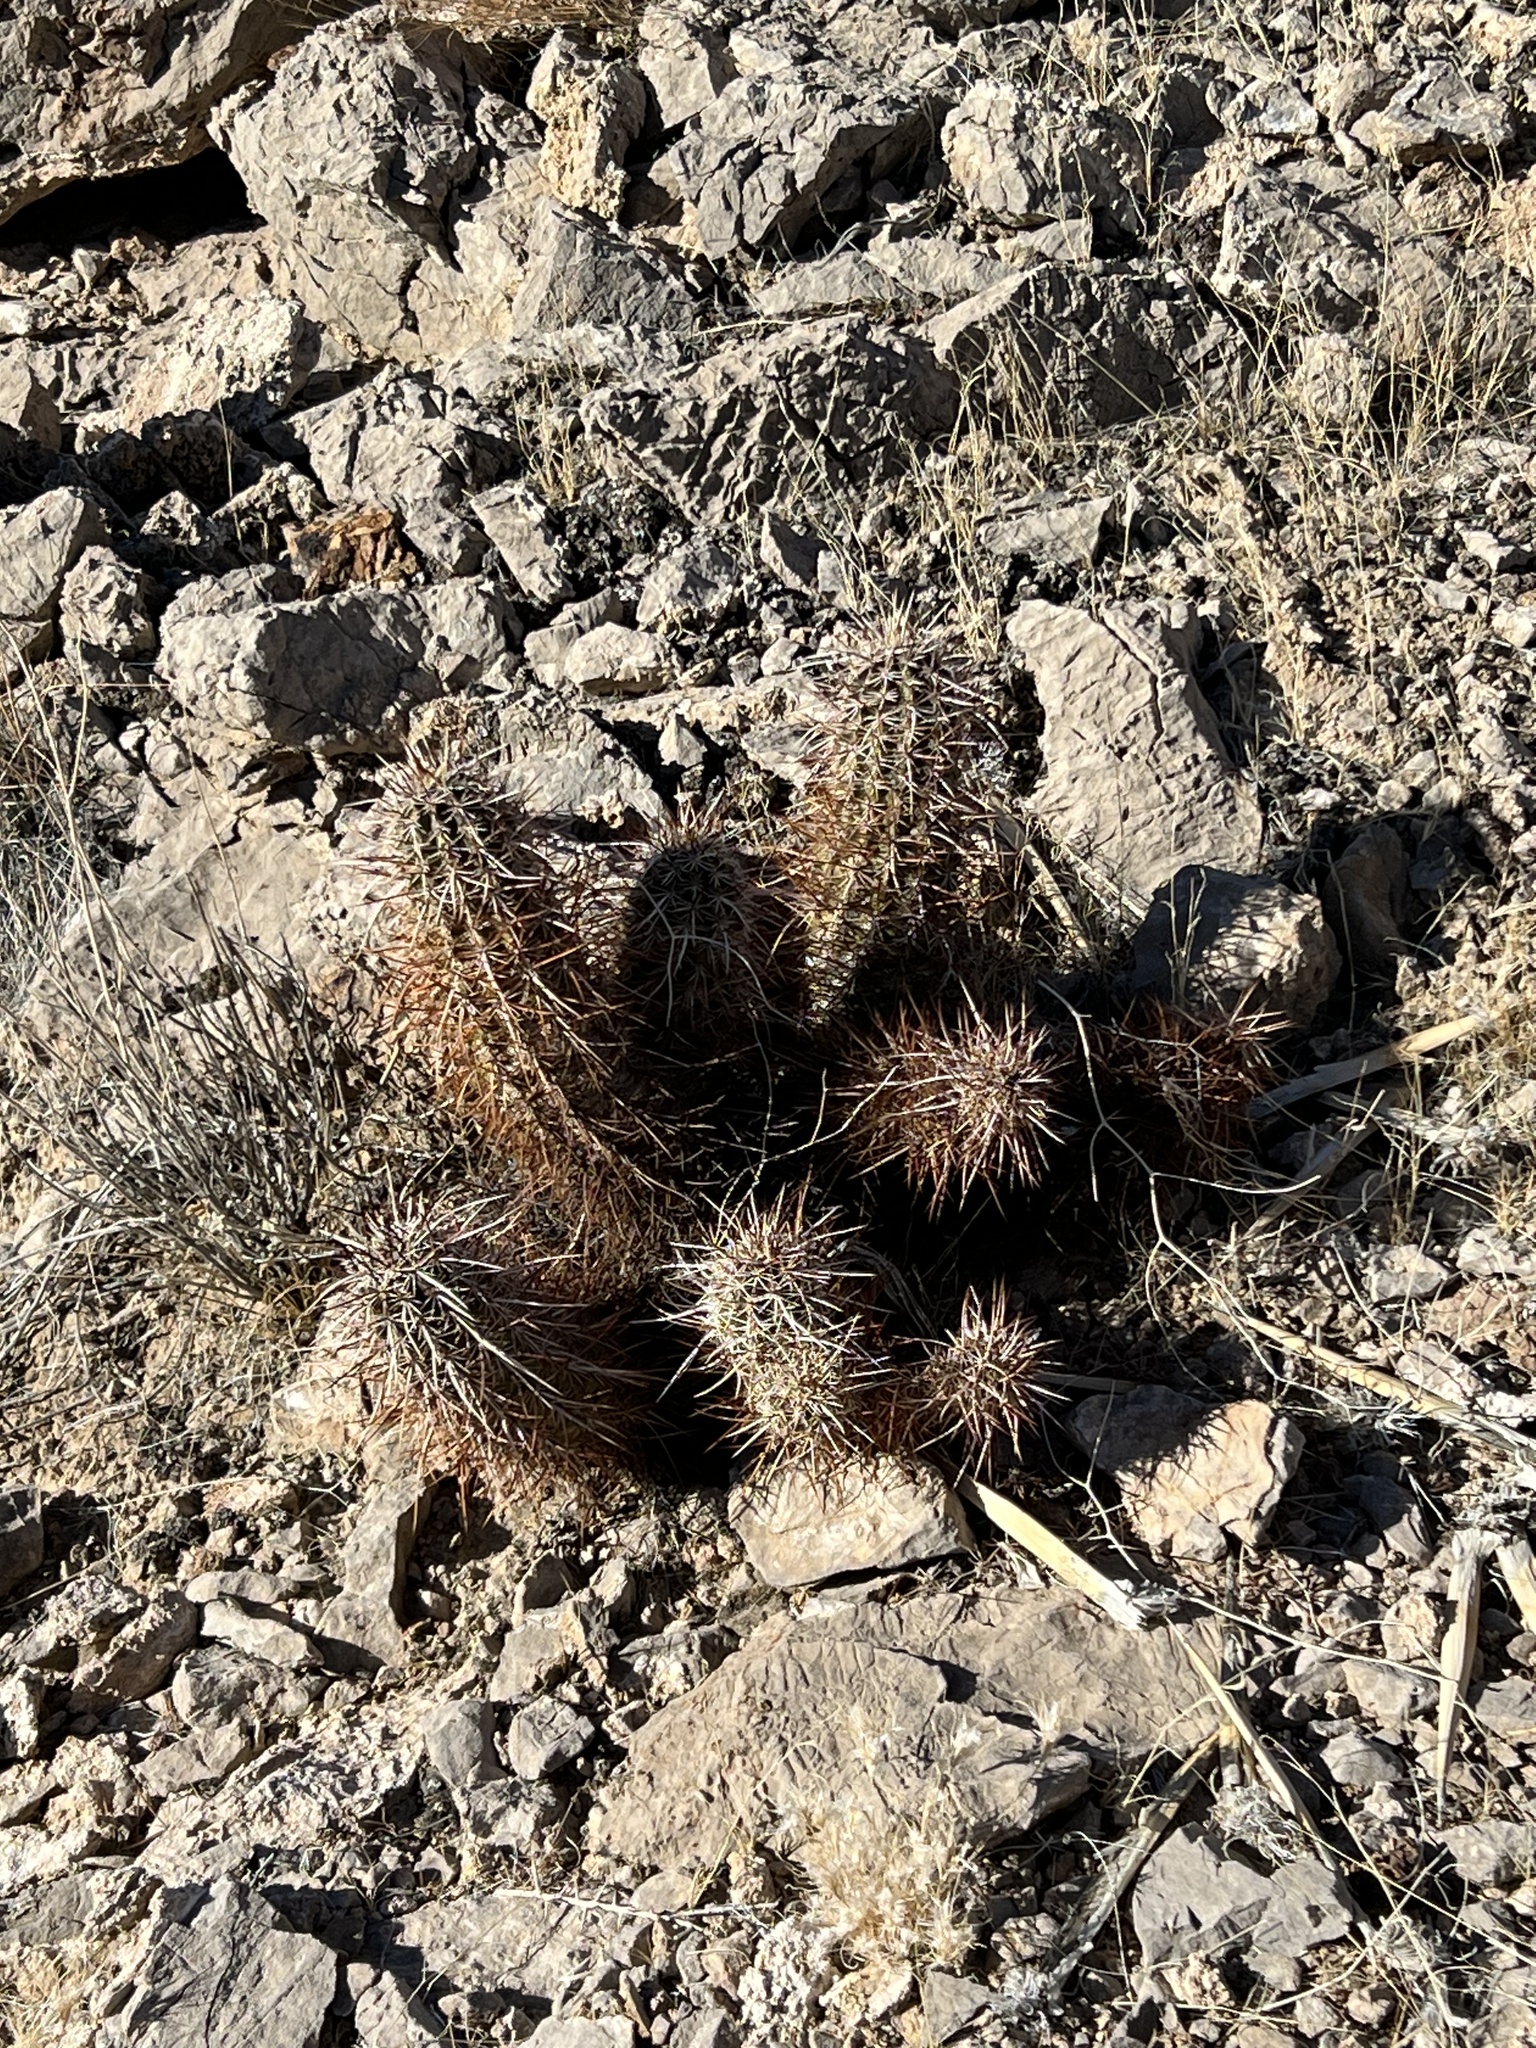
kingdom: Plantae
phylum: Tracheophyta
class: Magnoliopsida
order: Caryophyllales
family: Cactaceae
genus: Echinocereus
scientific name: Echinocereus engelmannii
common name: Engelmann's hedgehog cactus
